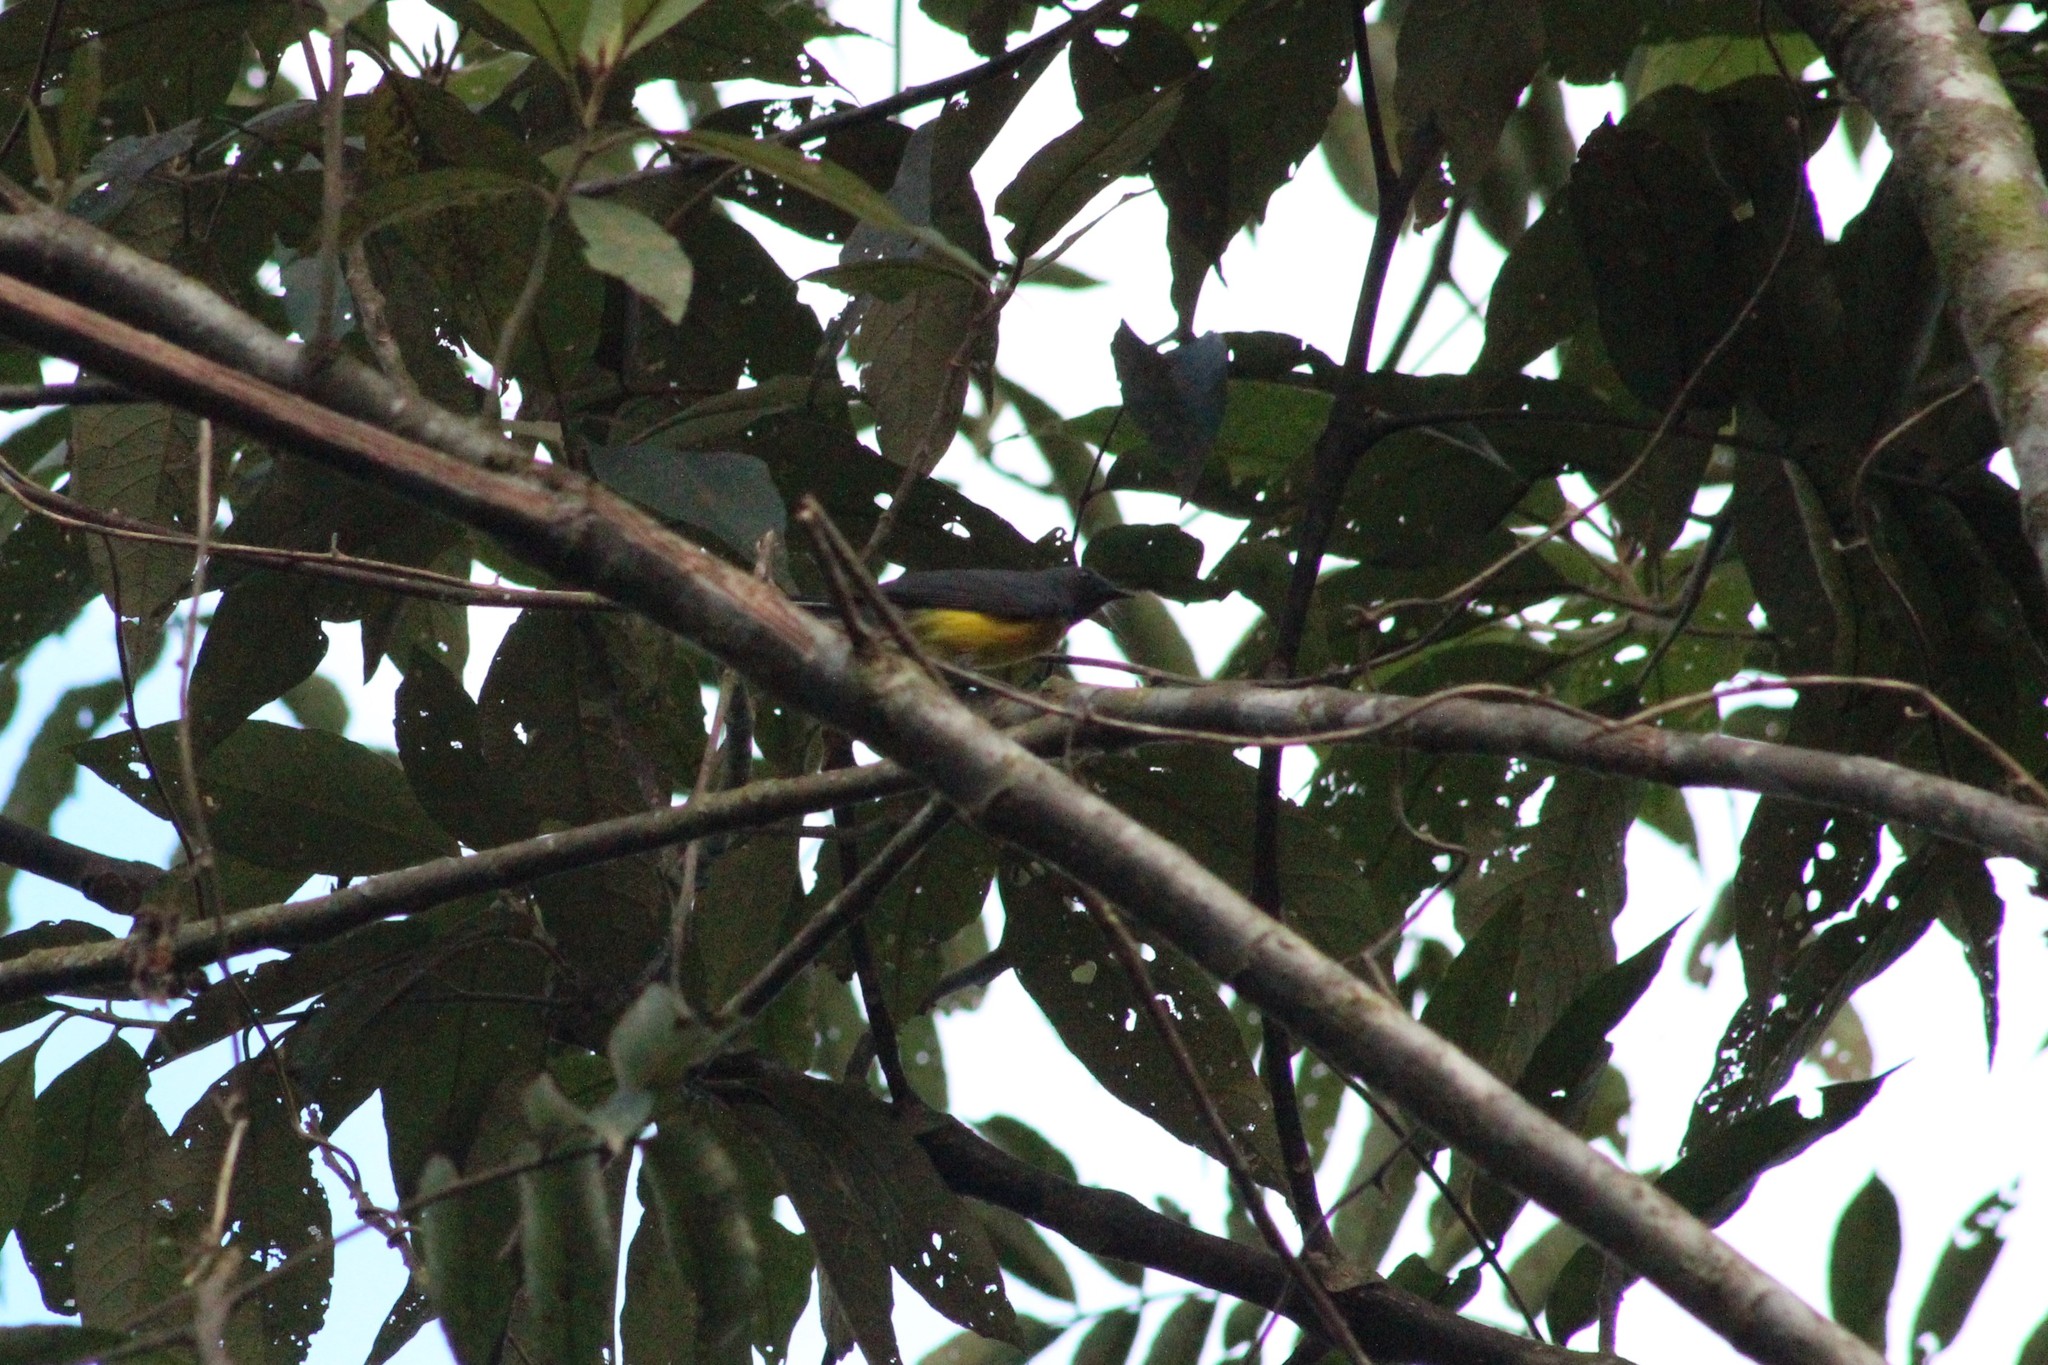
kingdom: Animalia
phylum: Chordata
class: Aves
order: Passeriformes
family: Parulidae
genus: Myioborus
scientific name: Myioborus miniatus
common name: Slate-throated redstart
